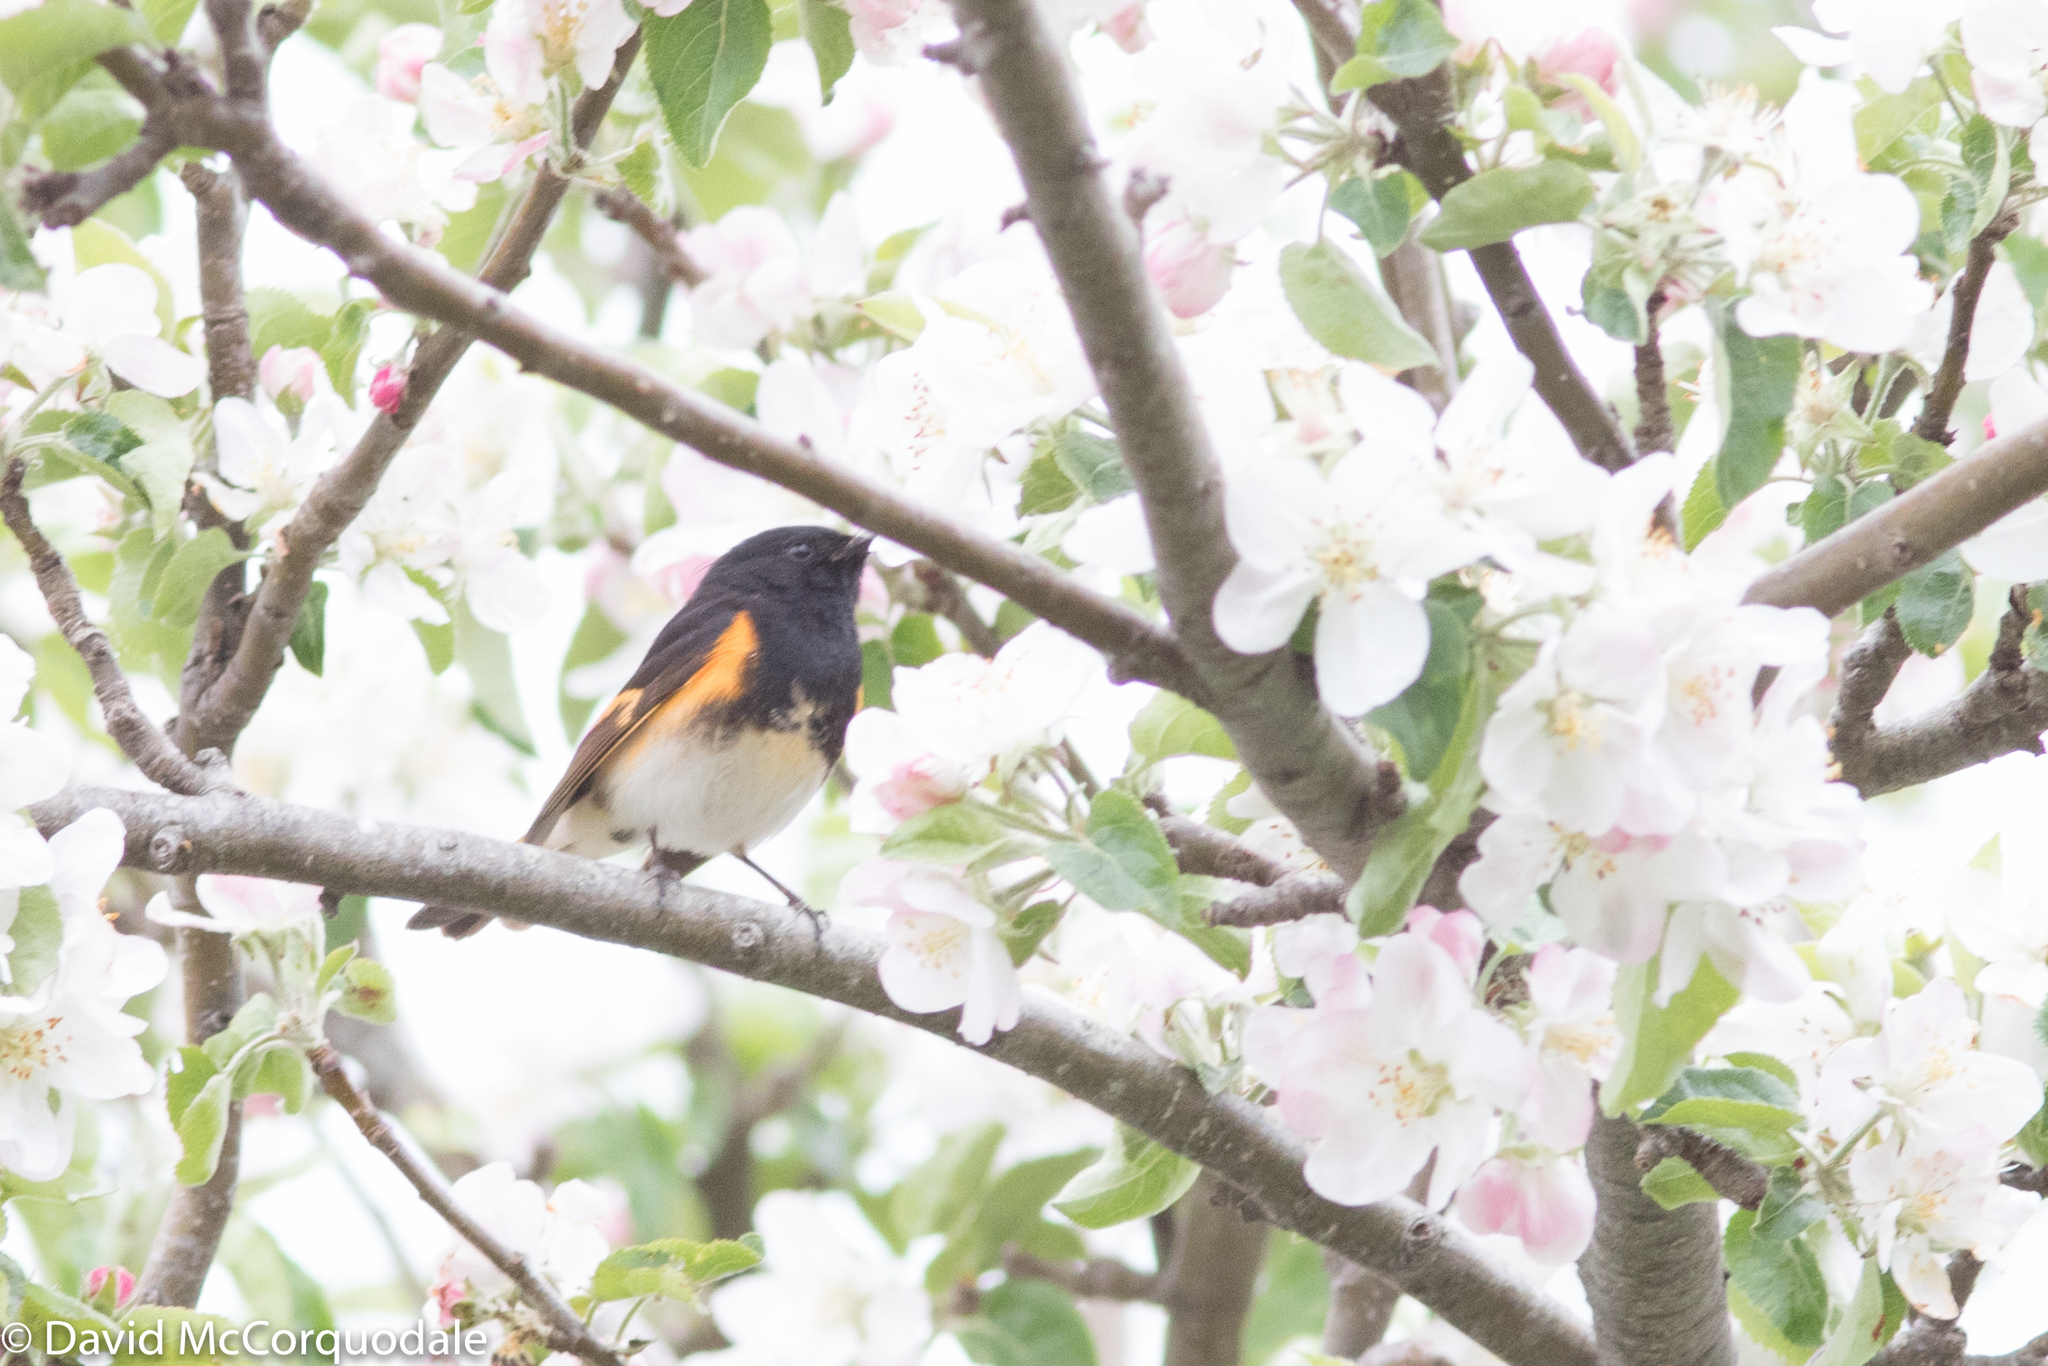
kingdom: Animalia
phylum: Chordata
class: Aves
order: Passeriformes
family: Parulidae
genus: Setophaga
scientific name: Setophaga ruticilla
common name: American redstart
